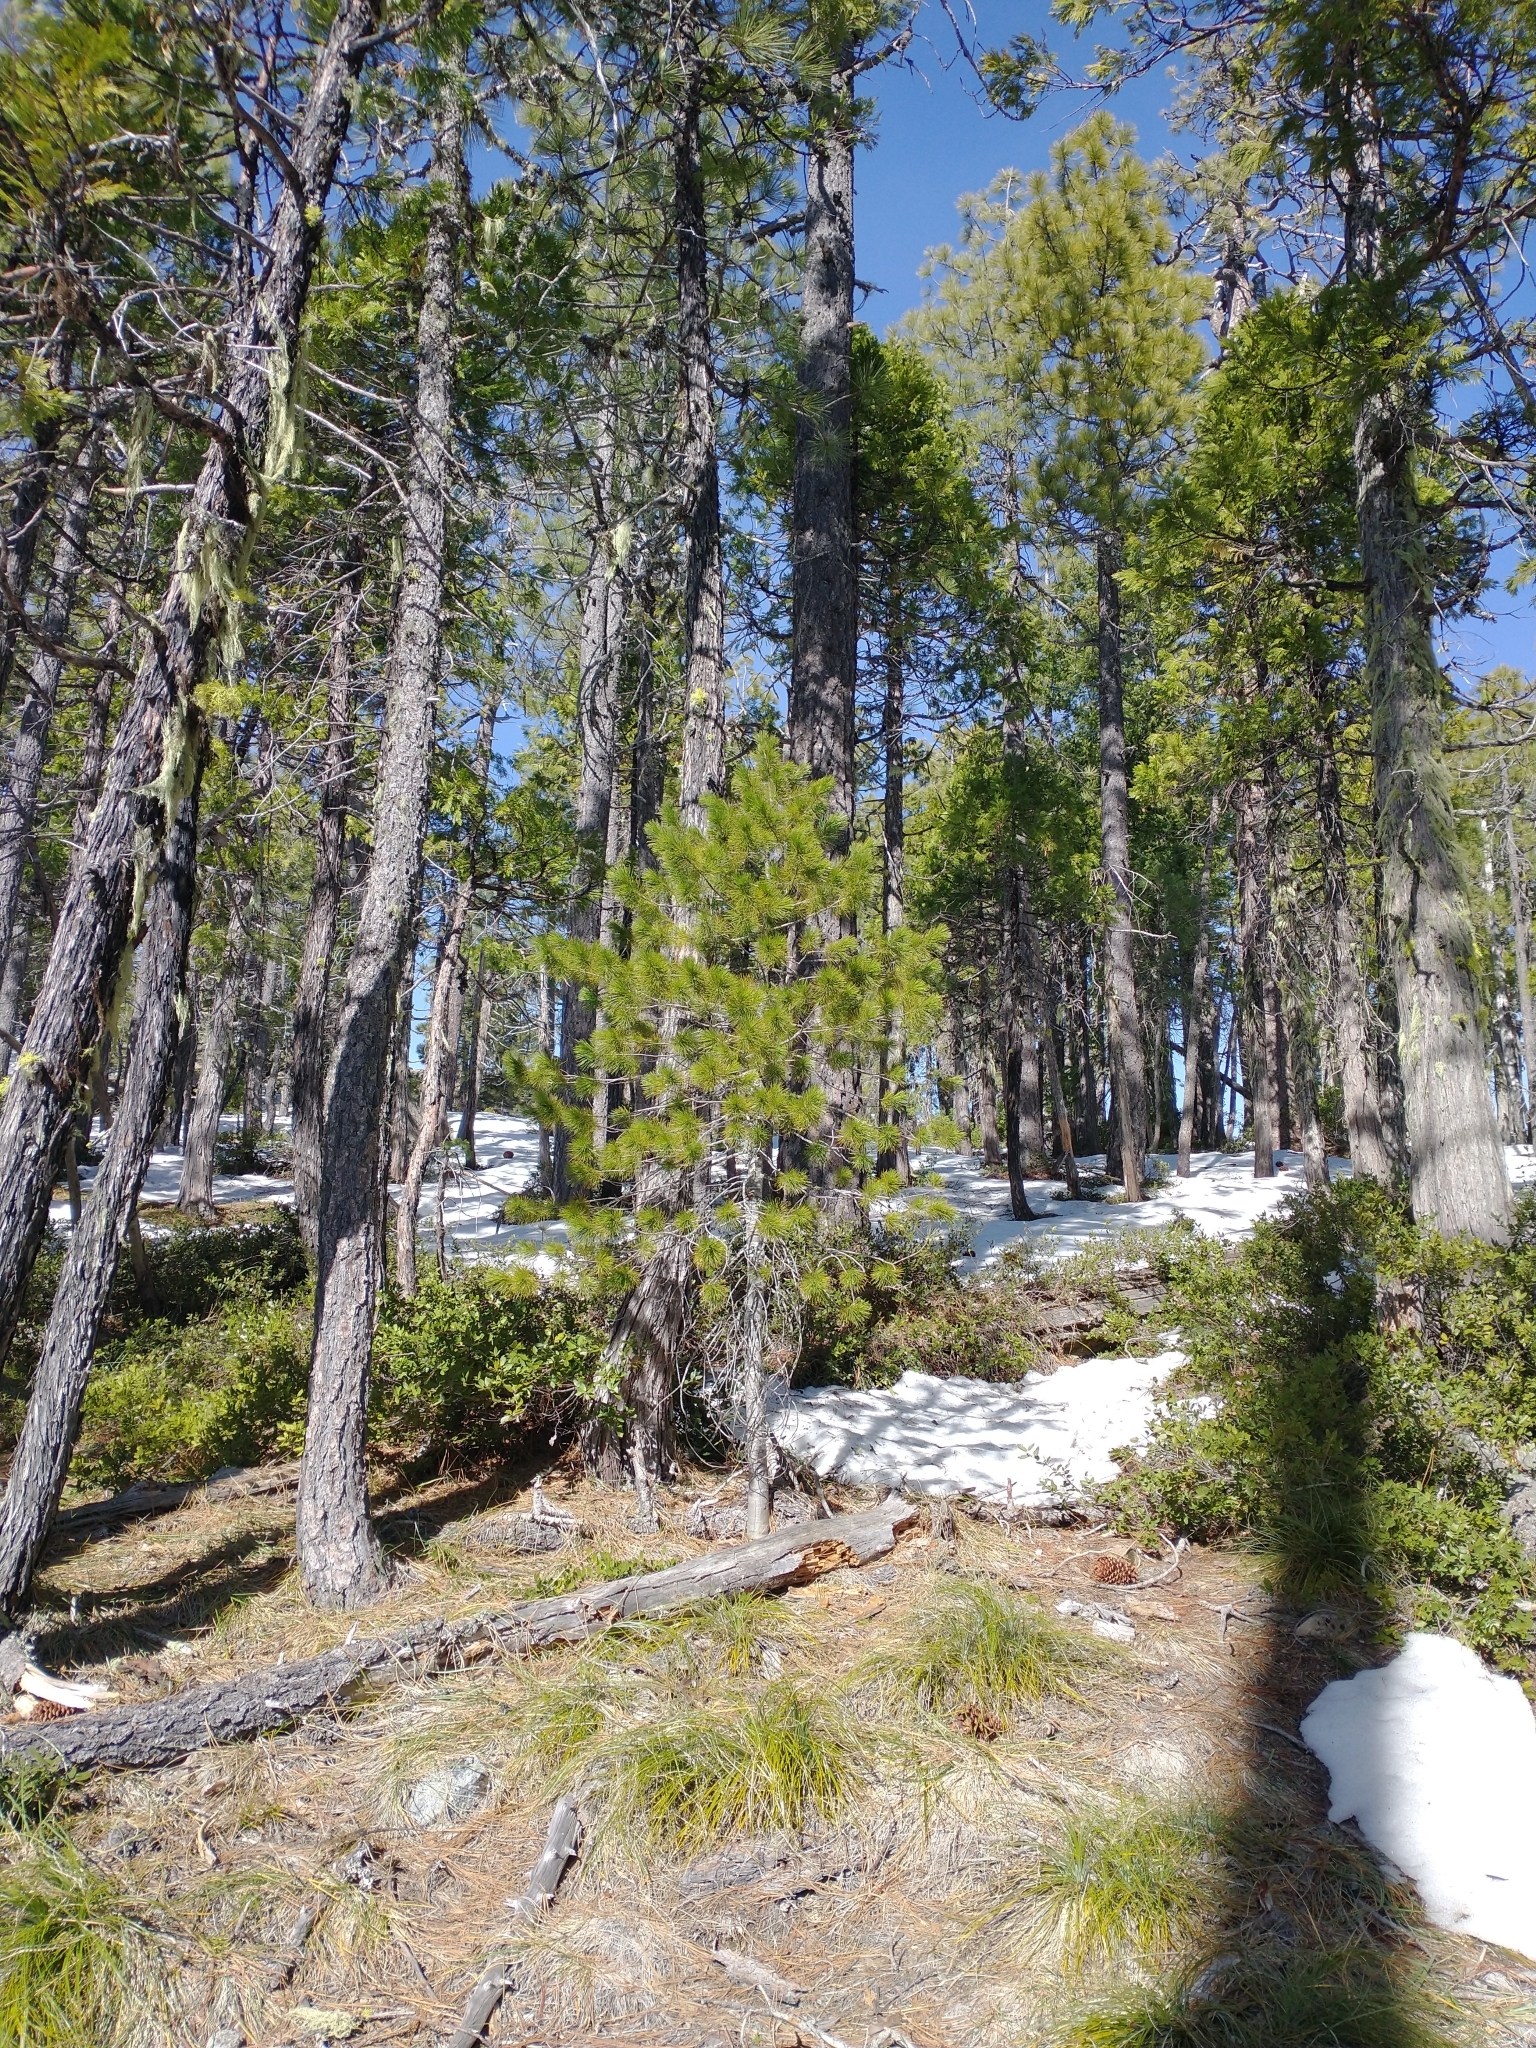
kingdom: Plantae
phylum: Tracheophyta
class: Pinopsida
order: Pinales
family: Pinaceae
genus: Pinus
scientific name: Pinus monticola
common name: Western white pine
